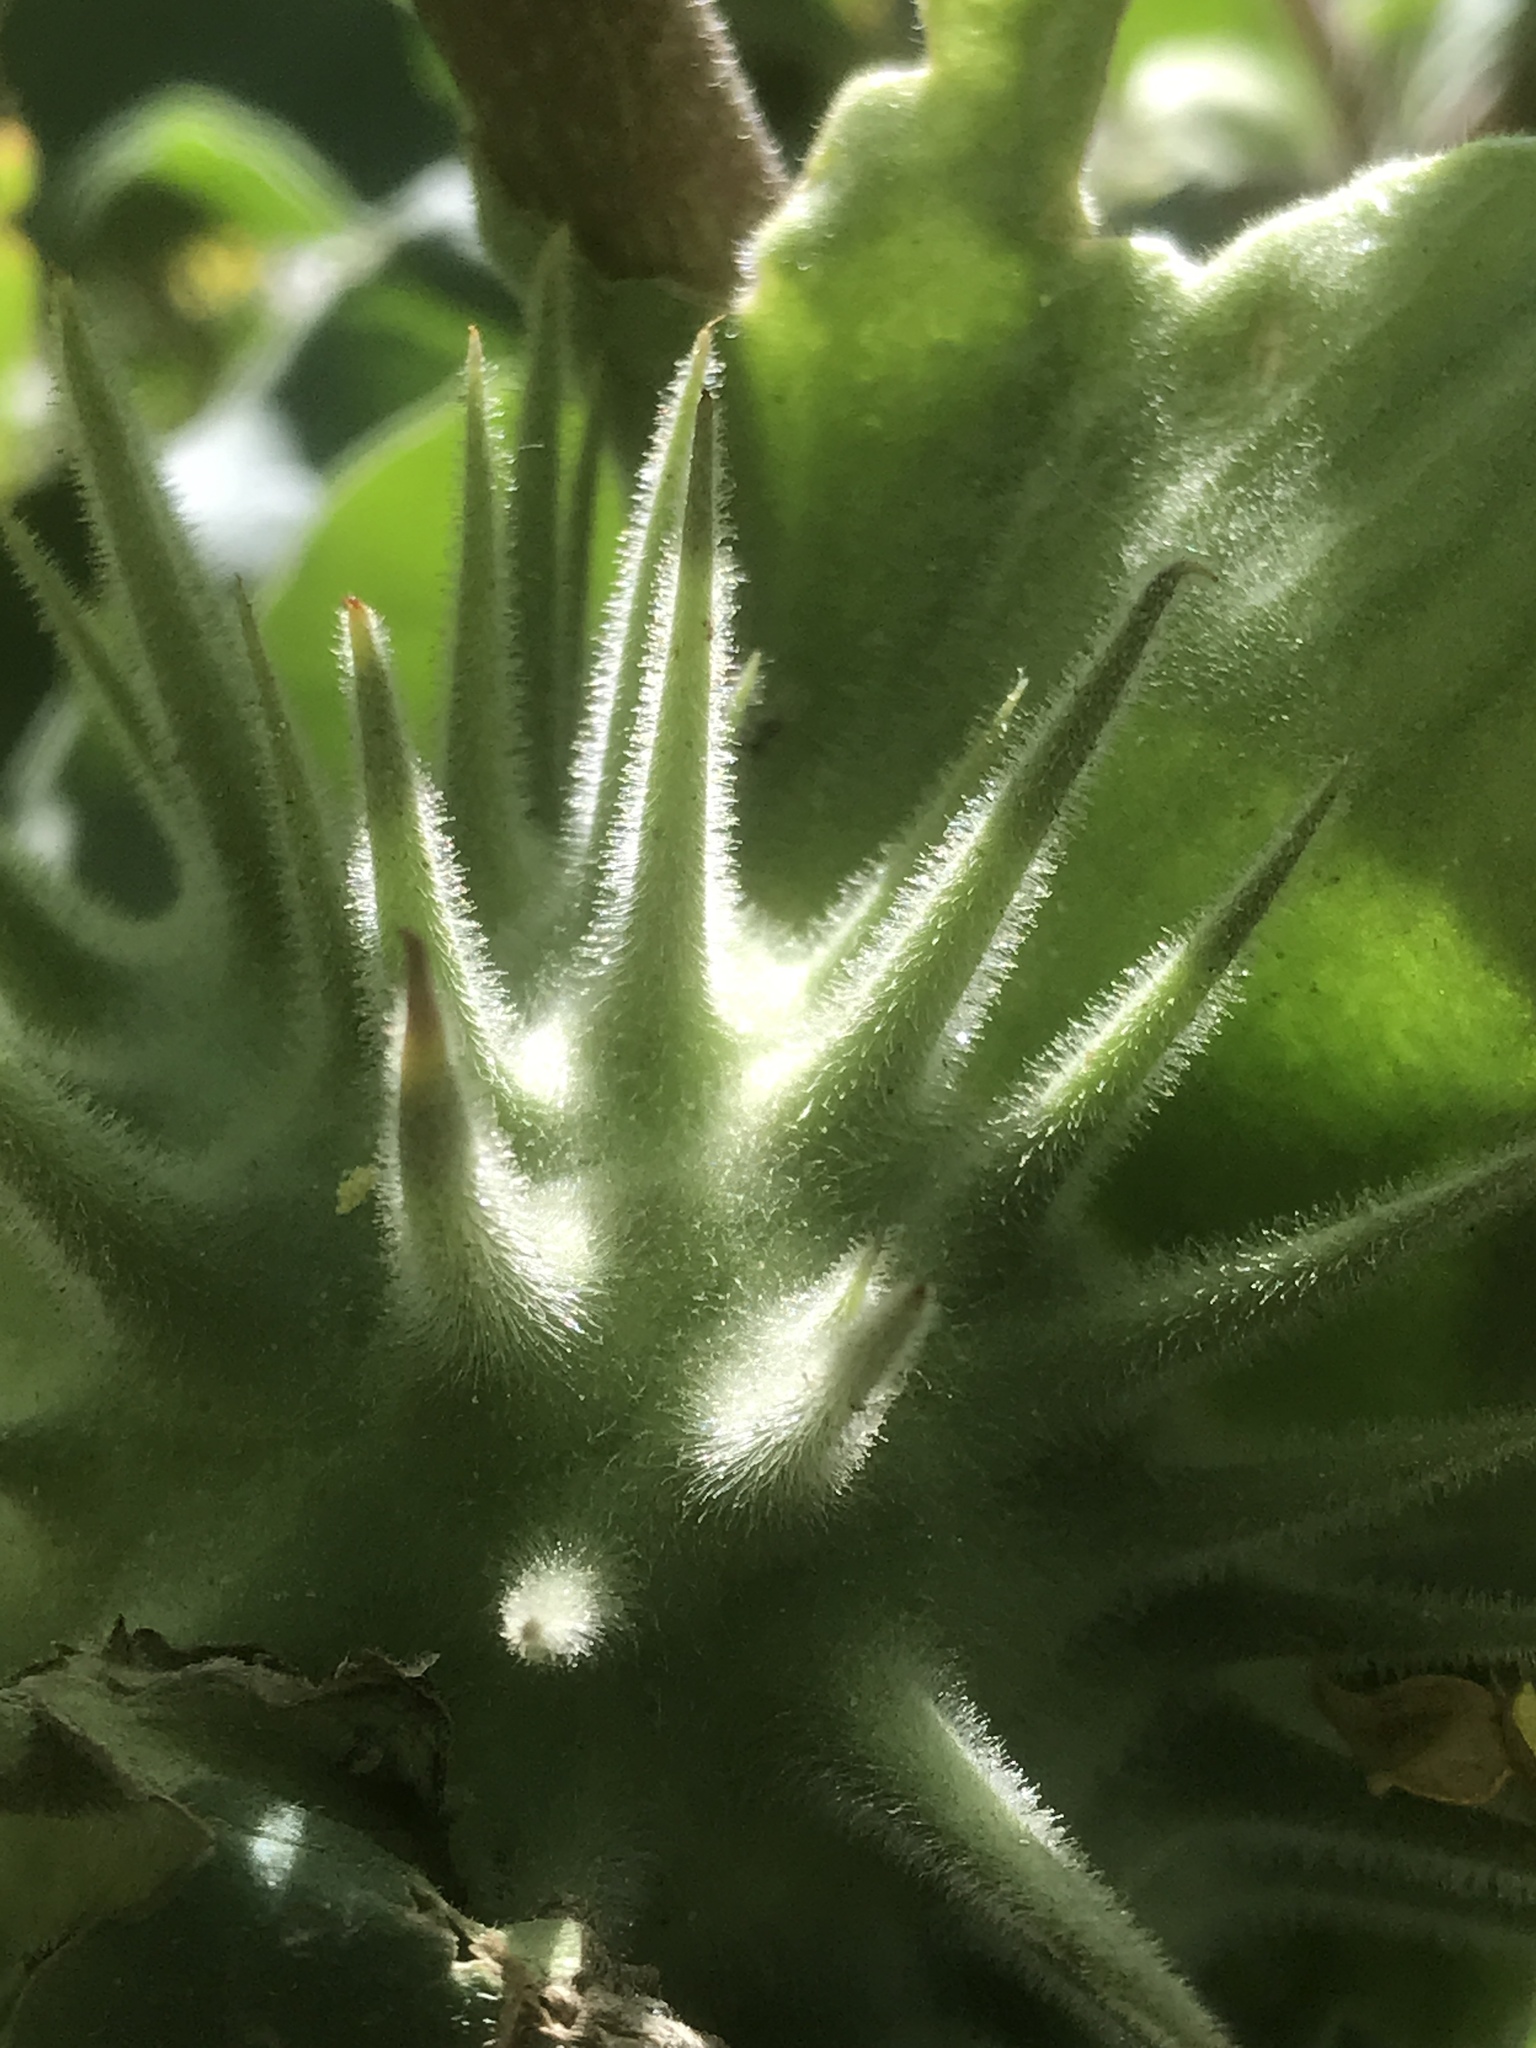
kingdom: Plantae
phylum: Tracheophyta
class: Magnoliopsida
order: Solanales
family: Solanaceae
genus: Datura
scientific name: Datura discolor
